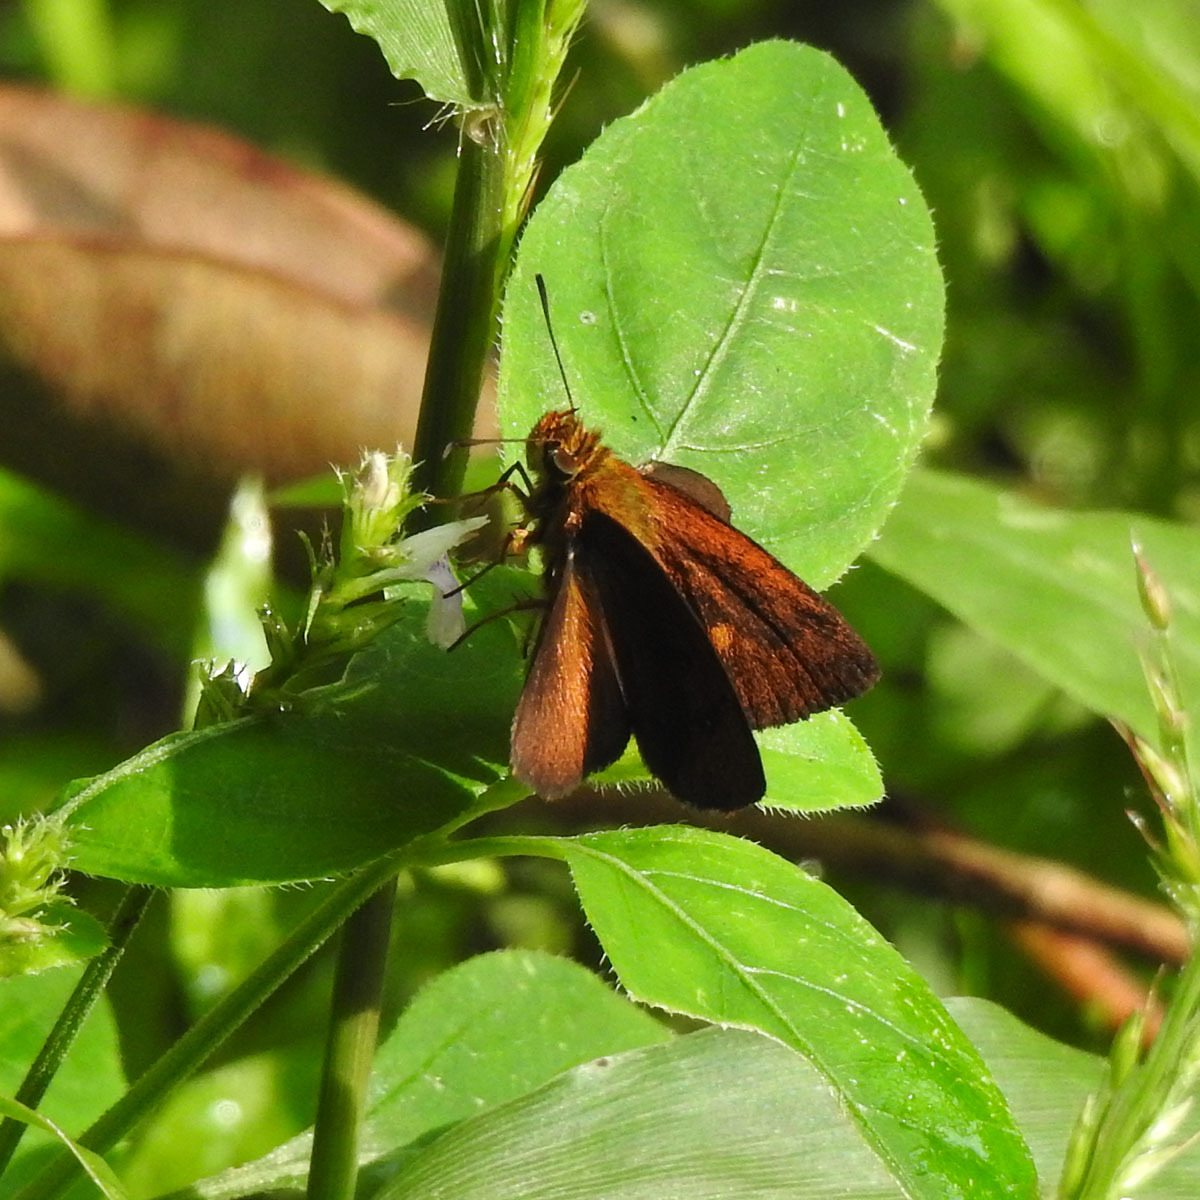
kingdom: Animalia
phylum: Arthropoda
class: Insecta
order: Lepidoptera
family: Hesperiidae
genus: Iambrix
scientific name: Iambrix salsala
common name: Chestnut bob
